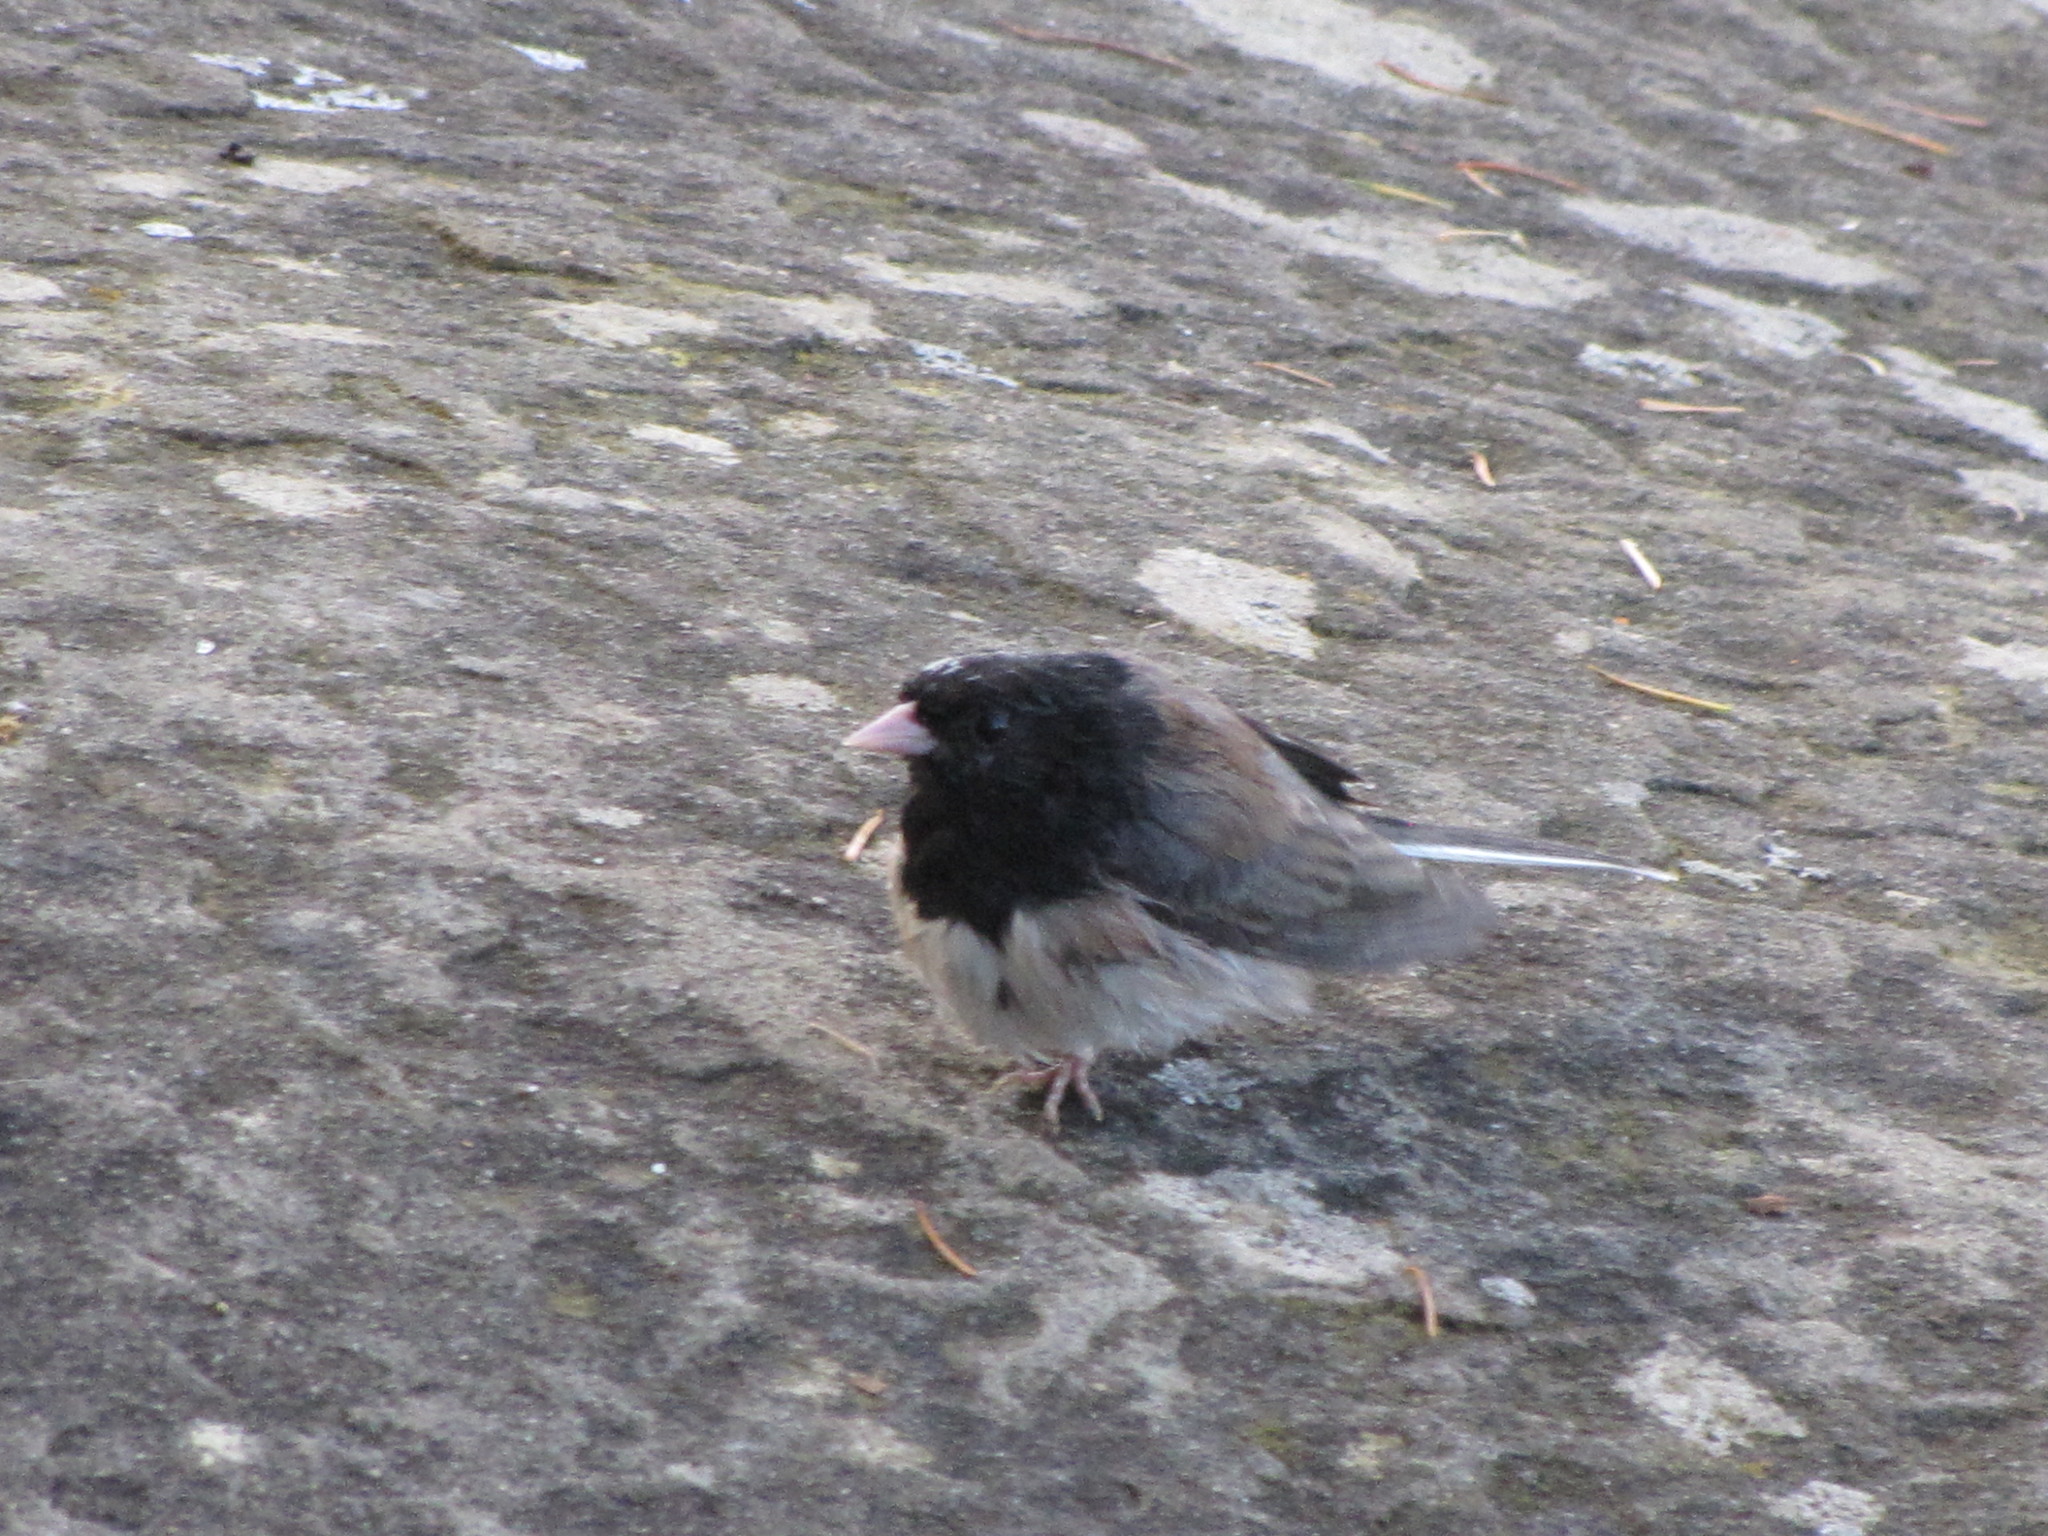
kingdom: Animalia
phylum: Chordata
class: Aves
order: Passeriformes
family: Passerellidae
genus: Junco
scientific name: Junco hyemalis
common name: Dark-eyed junco
